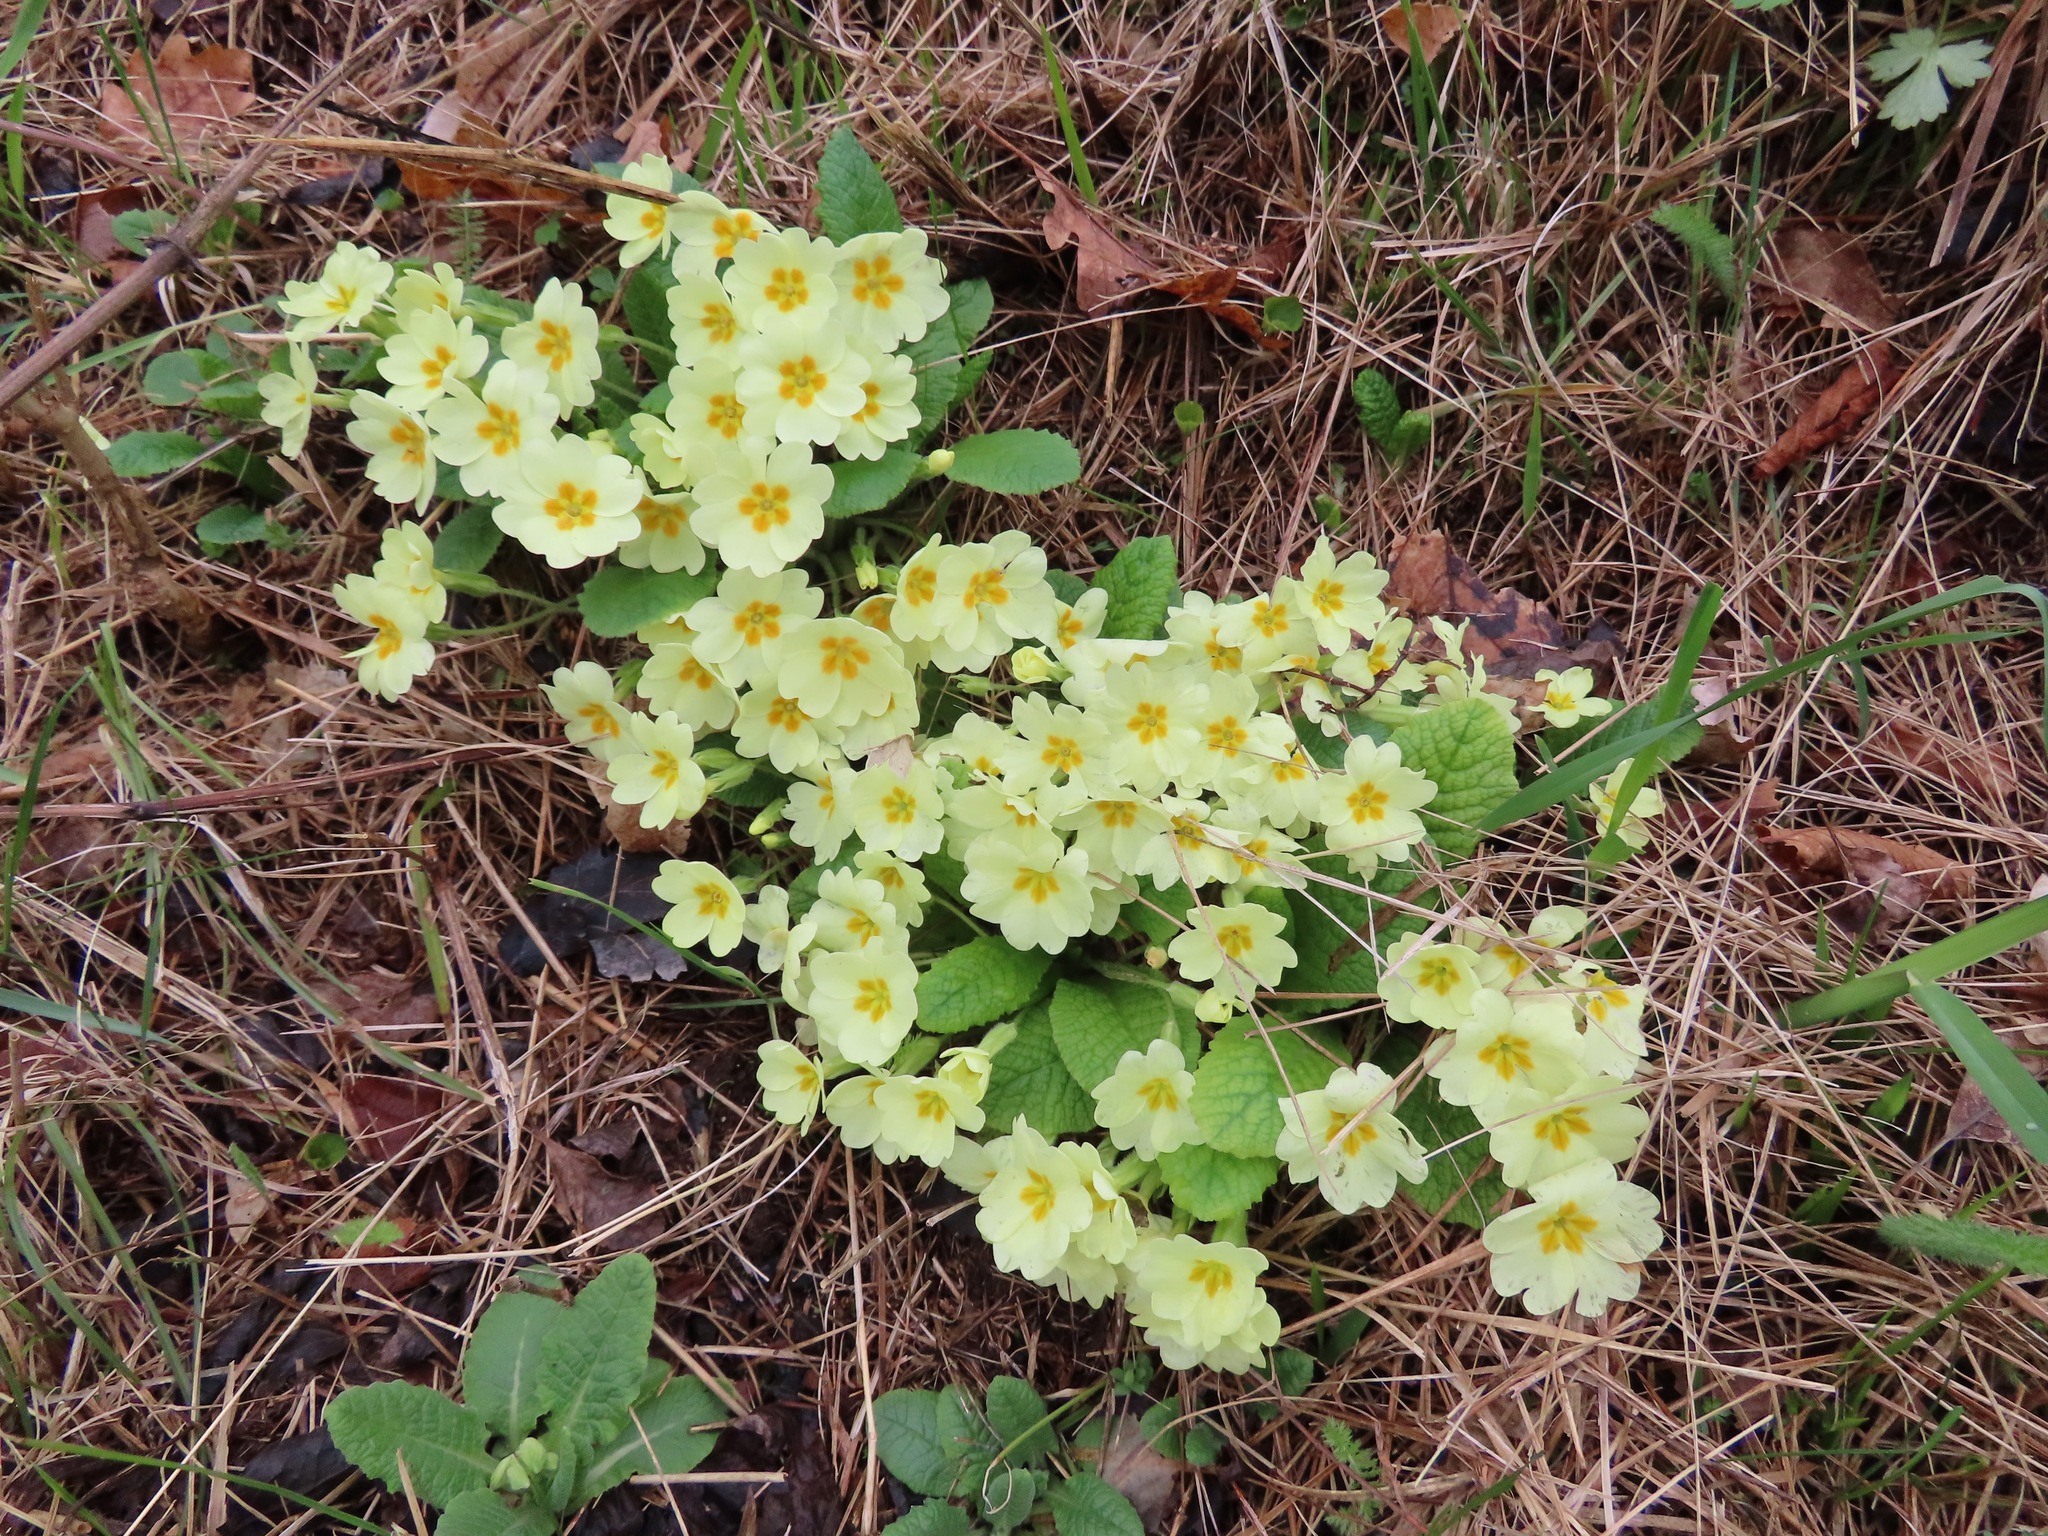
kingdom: Plantae
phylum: Tracheophyta
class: Magnoliopsida
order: Ericales
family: Primulaceae
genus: Primula
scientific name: Primula vulgaris
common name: Primrose
